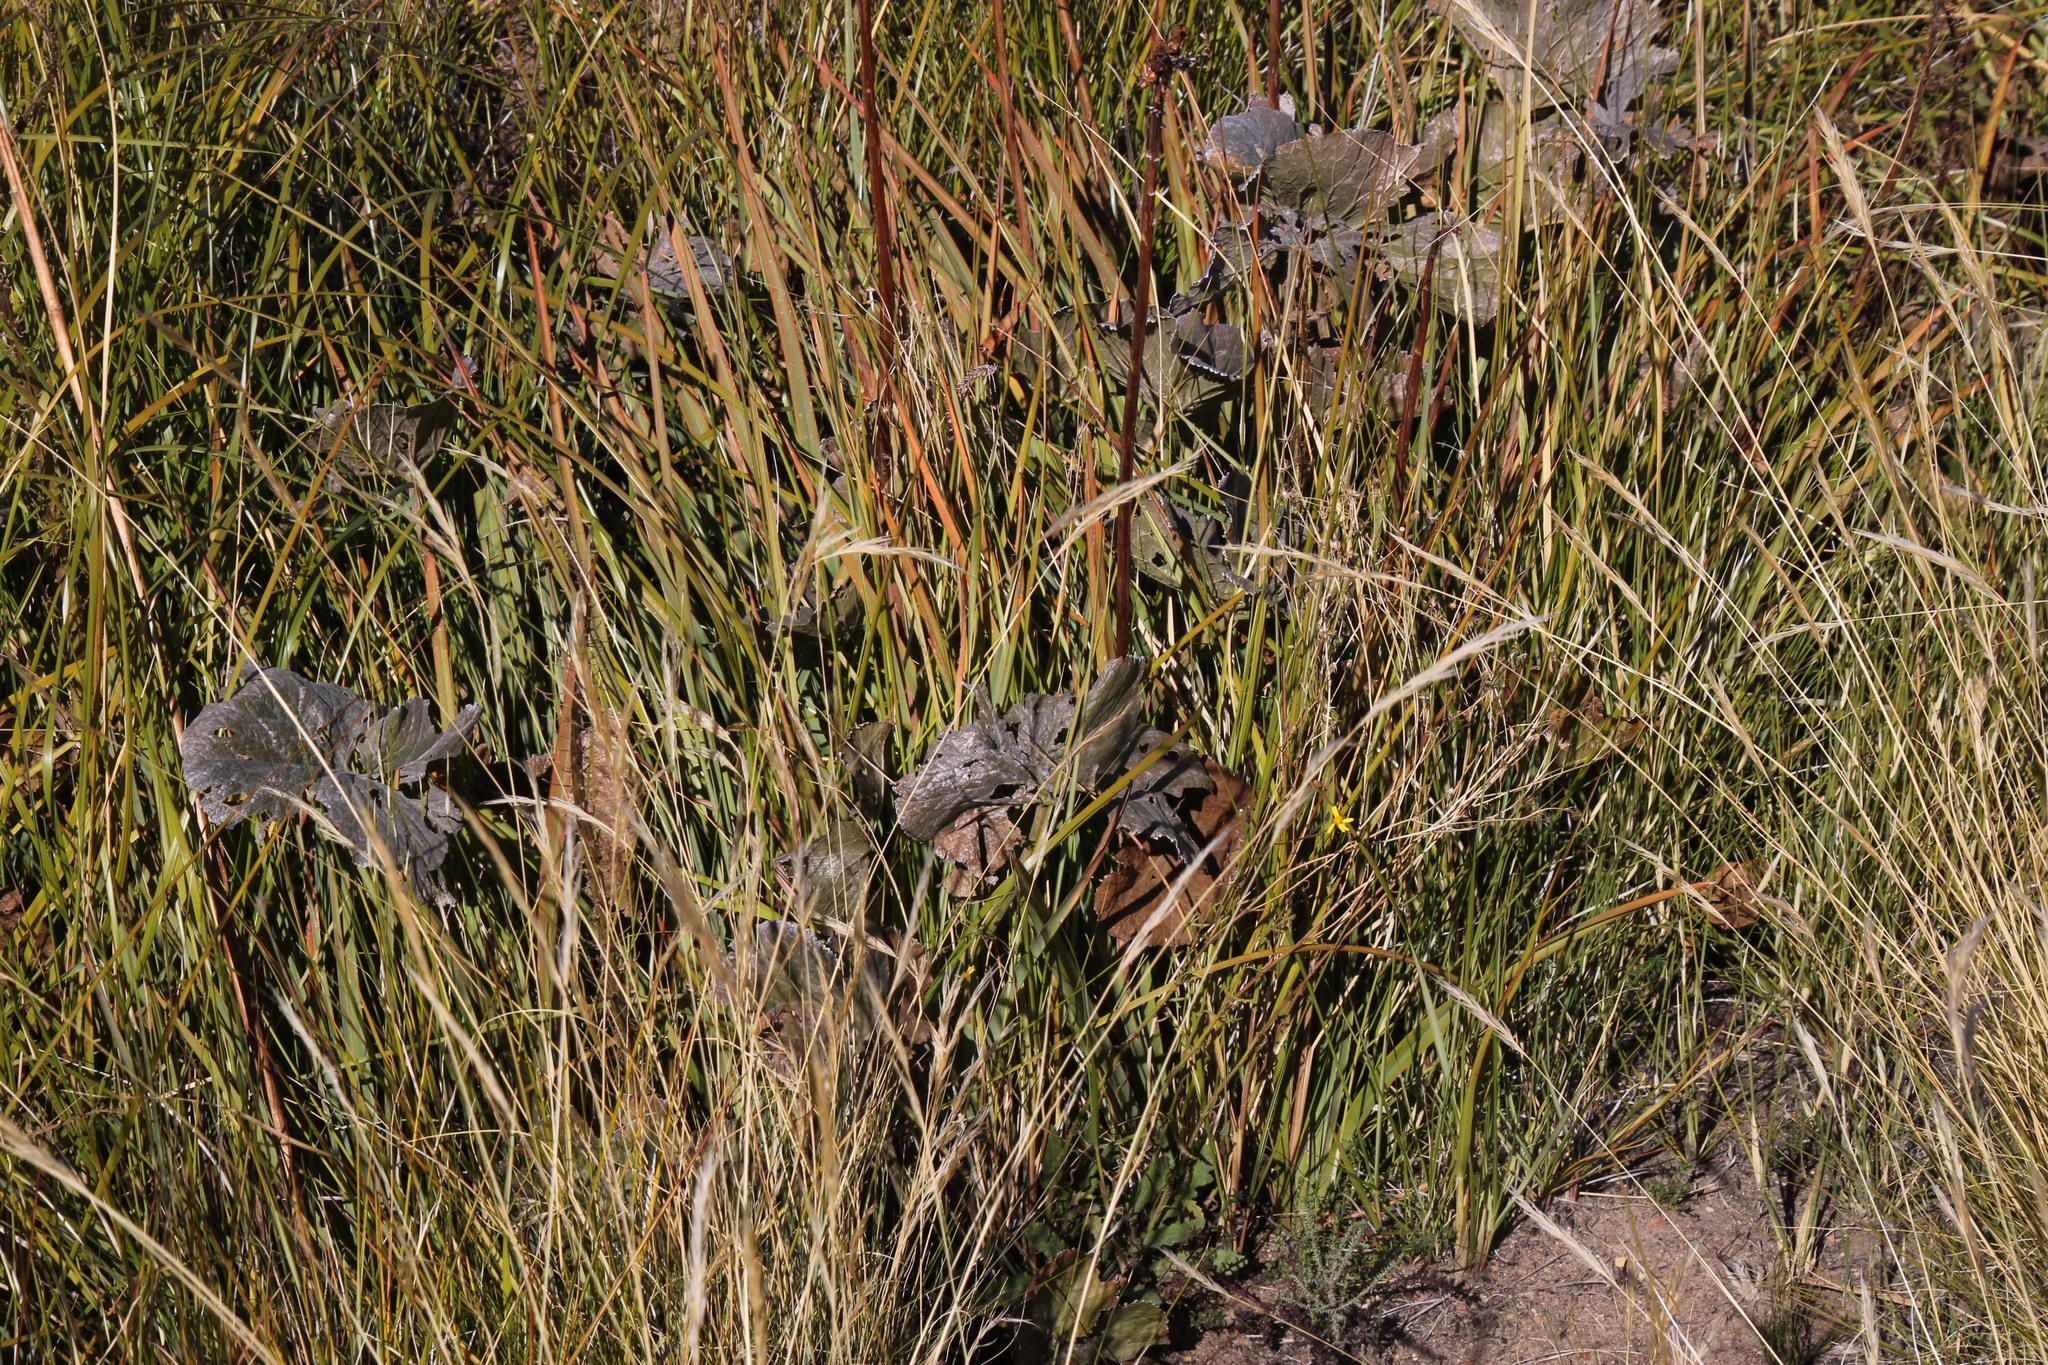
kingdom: Plantae
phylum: Tracheophyta
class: Magnoliopsida
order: Gunnerales
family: Gunneraceae
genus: Gunnera
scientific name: Gunnera perpensa
